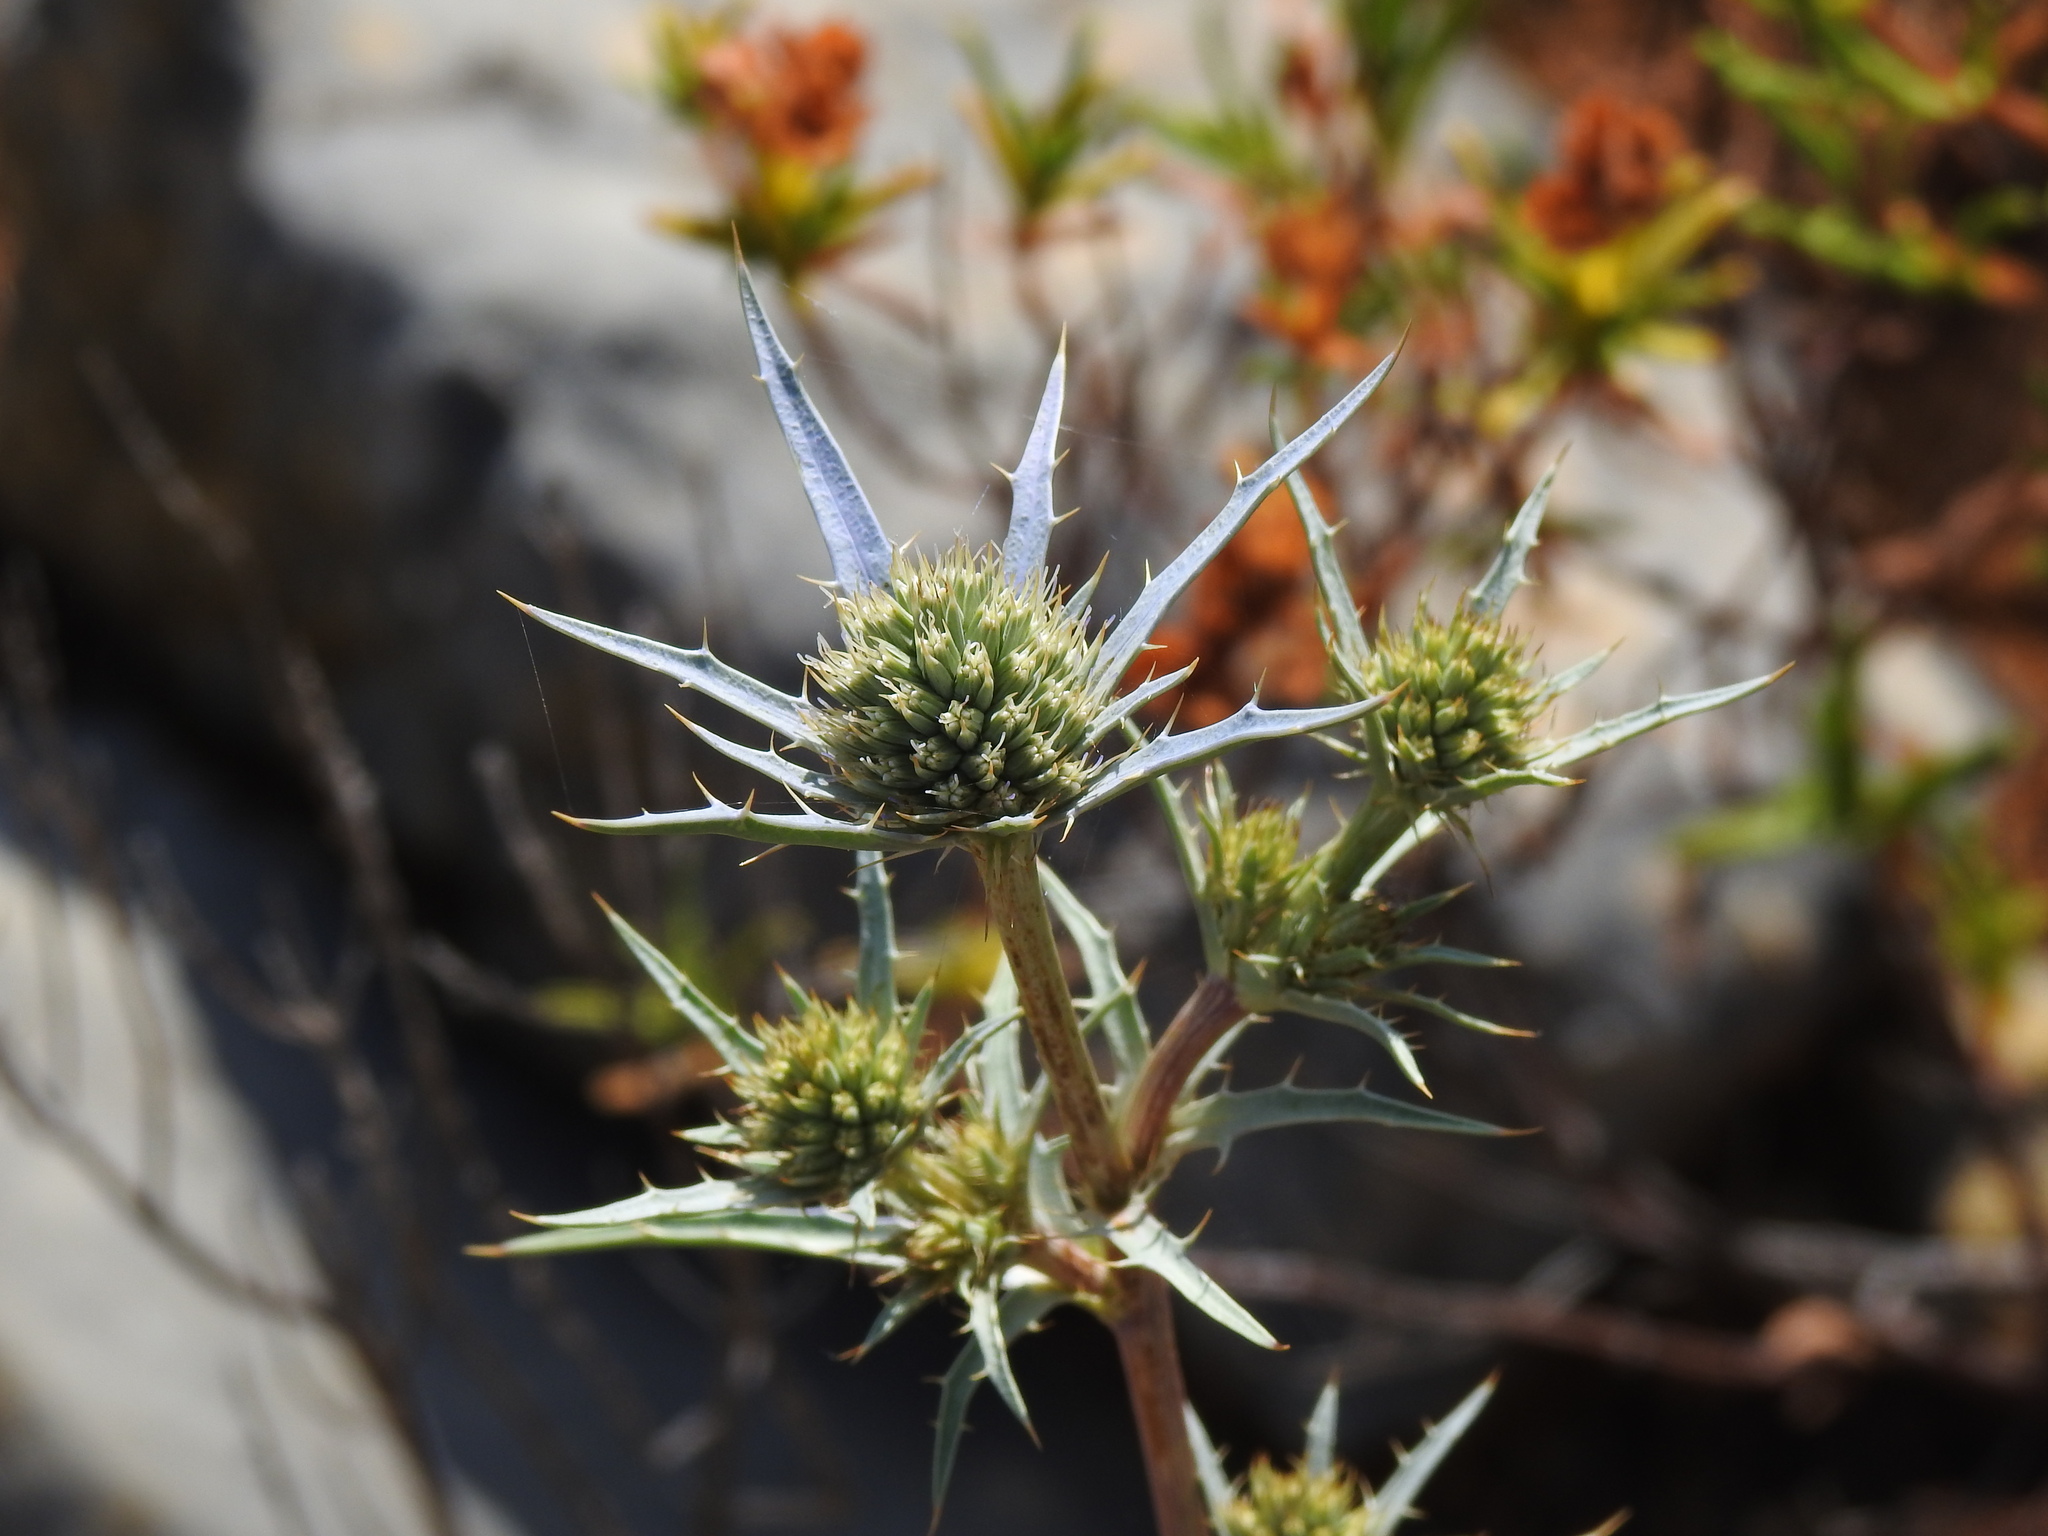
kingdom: Plantae
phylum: Tracheophyta
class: Magnoliopsida
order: Apiales
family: Apiaceae
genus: Eryngium
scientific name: Eryngium dilatatum
